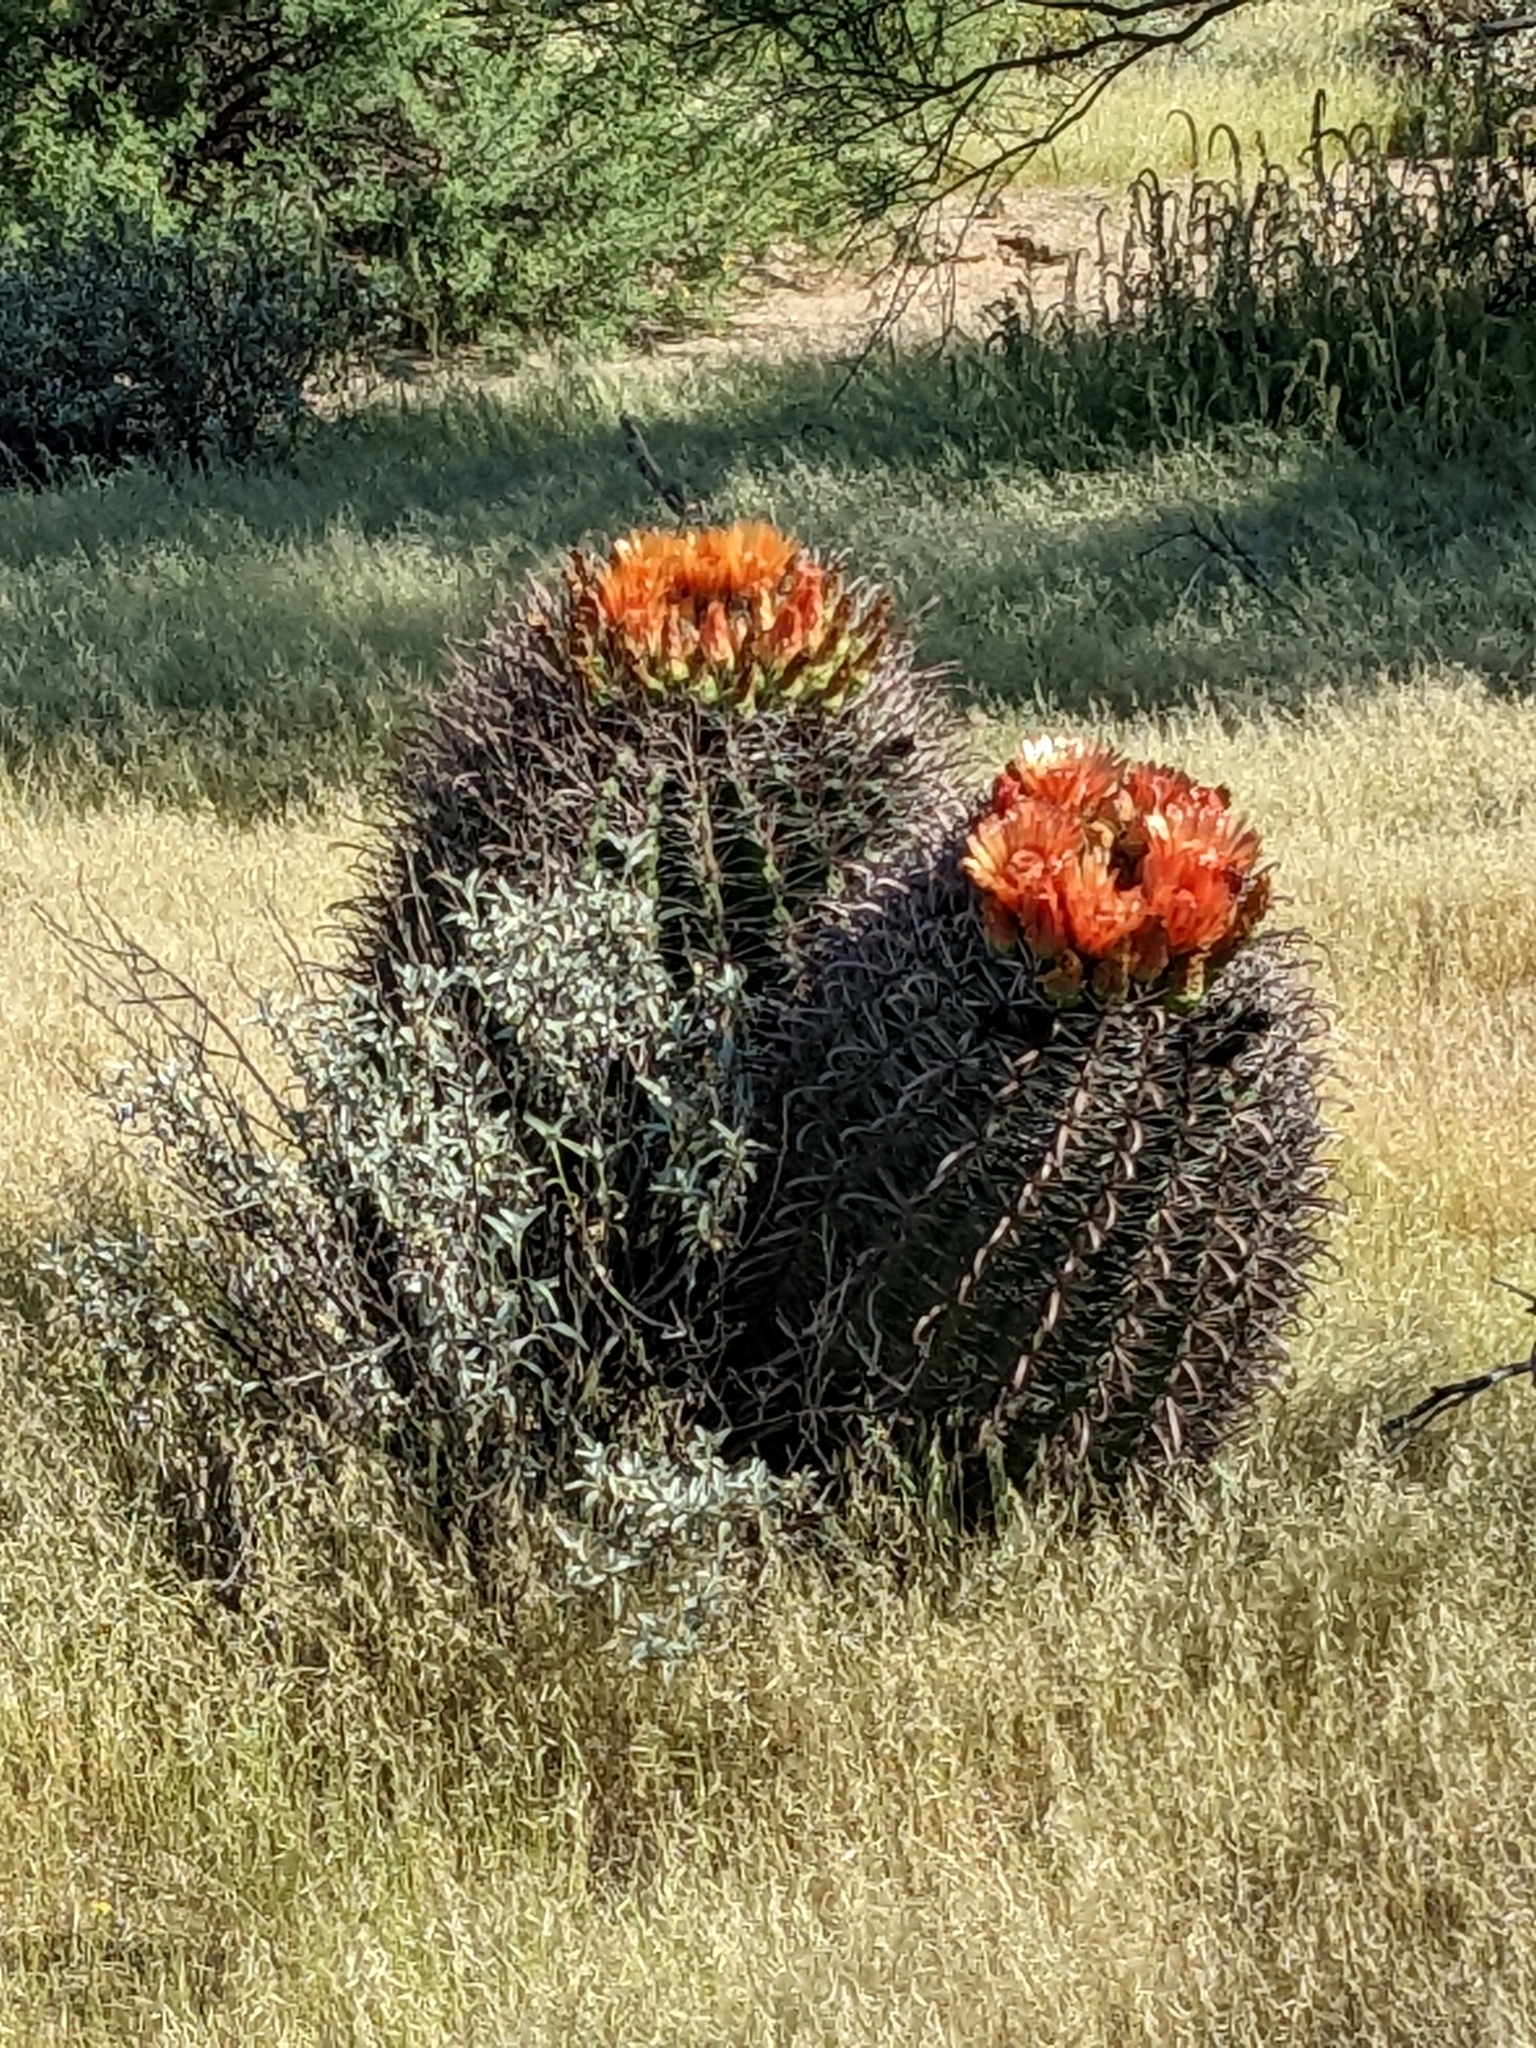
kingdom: Plantae
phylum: Tracheophyta
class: Magnoliopsida
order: Caryophyllales
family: Cactaceae
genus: Ferocactus
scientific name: Ferocactus wislizeni
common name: Candy barrel cactus
